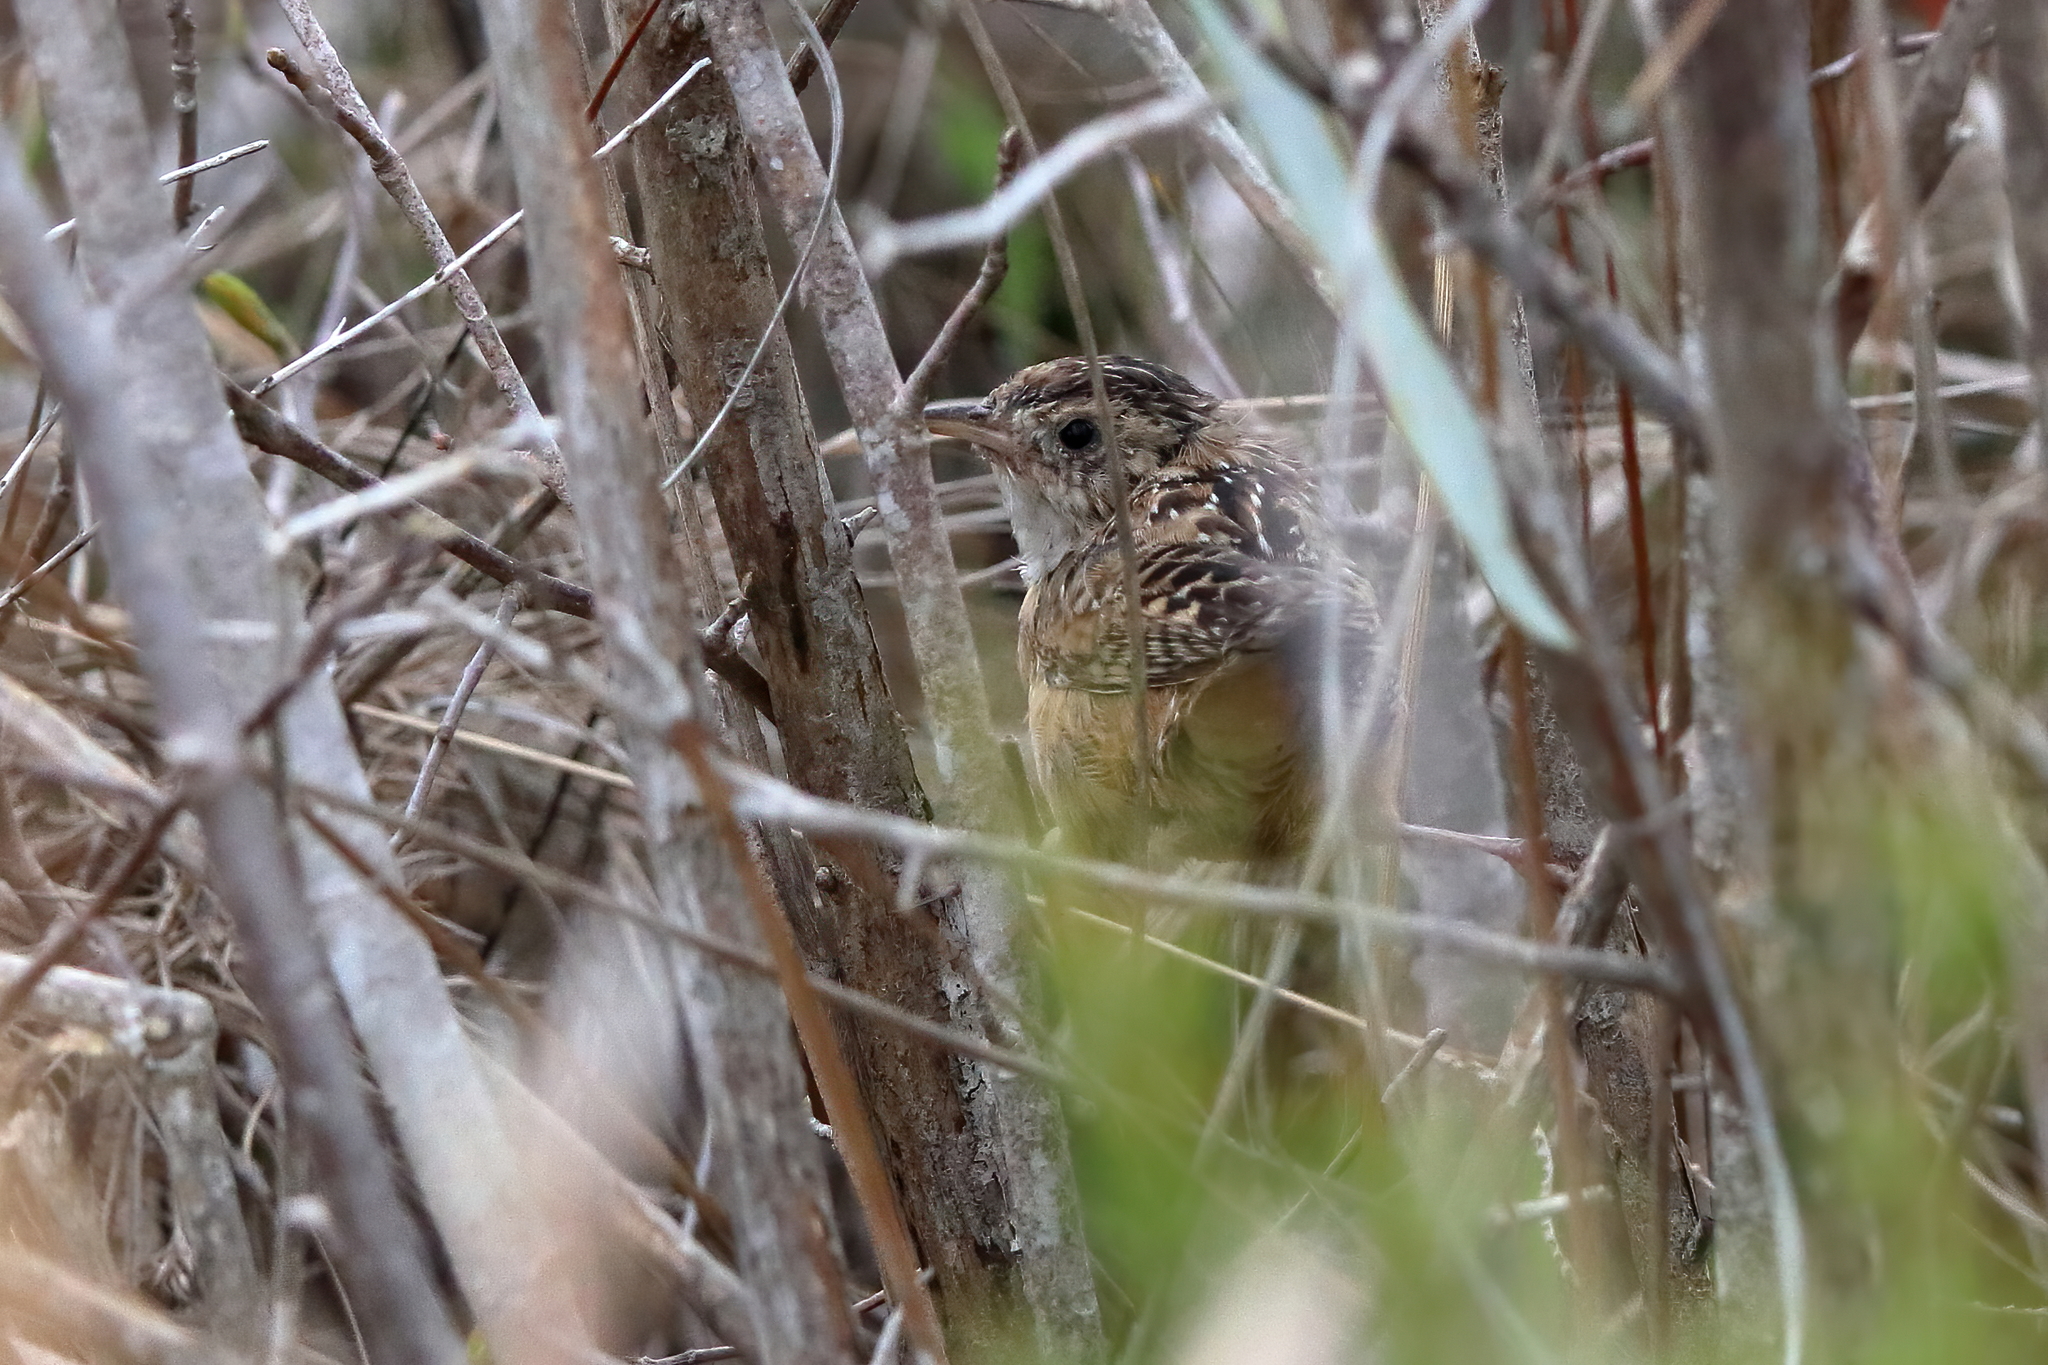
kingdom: Animalia
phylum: Chordata
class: Aves
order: Passeriformes
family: Troglodytidae
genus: Cistothorus
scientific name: Cistothorus platensis
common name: Sedge wren
